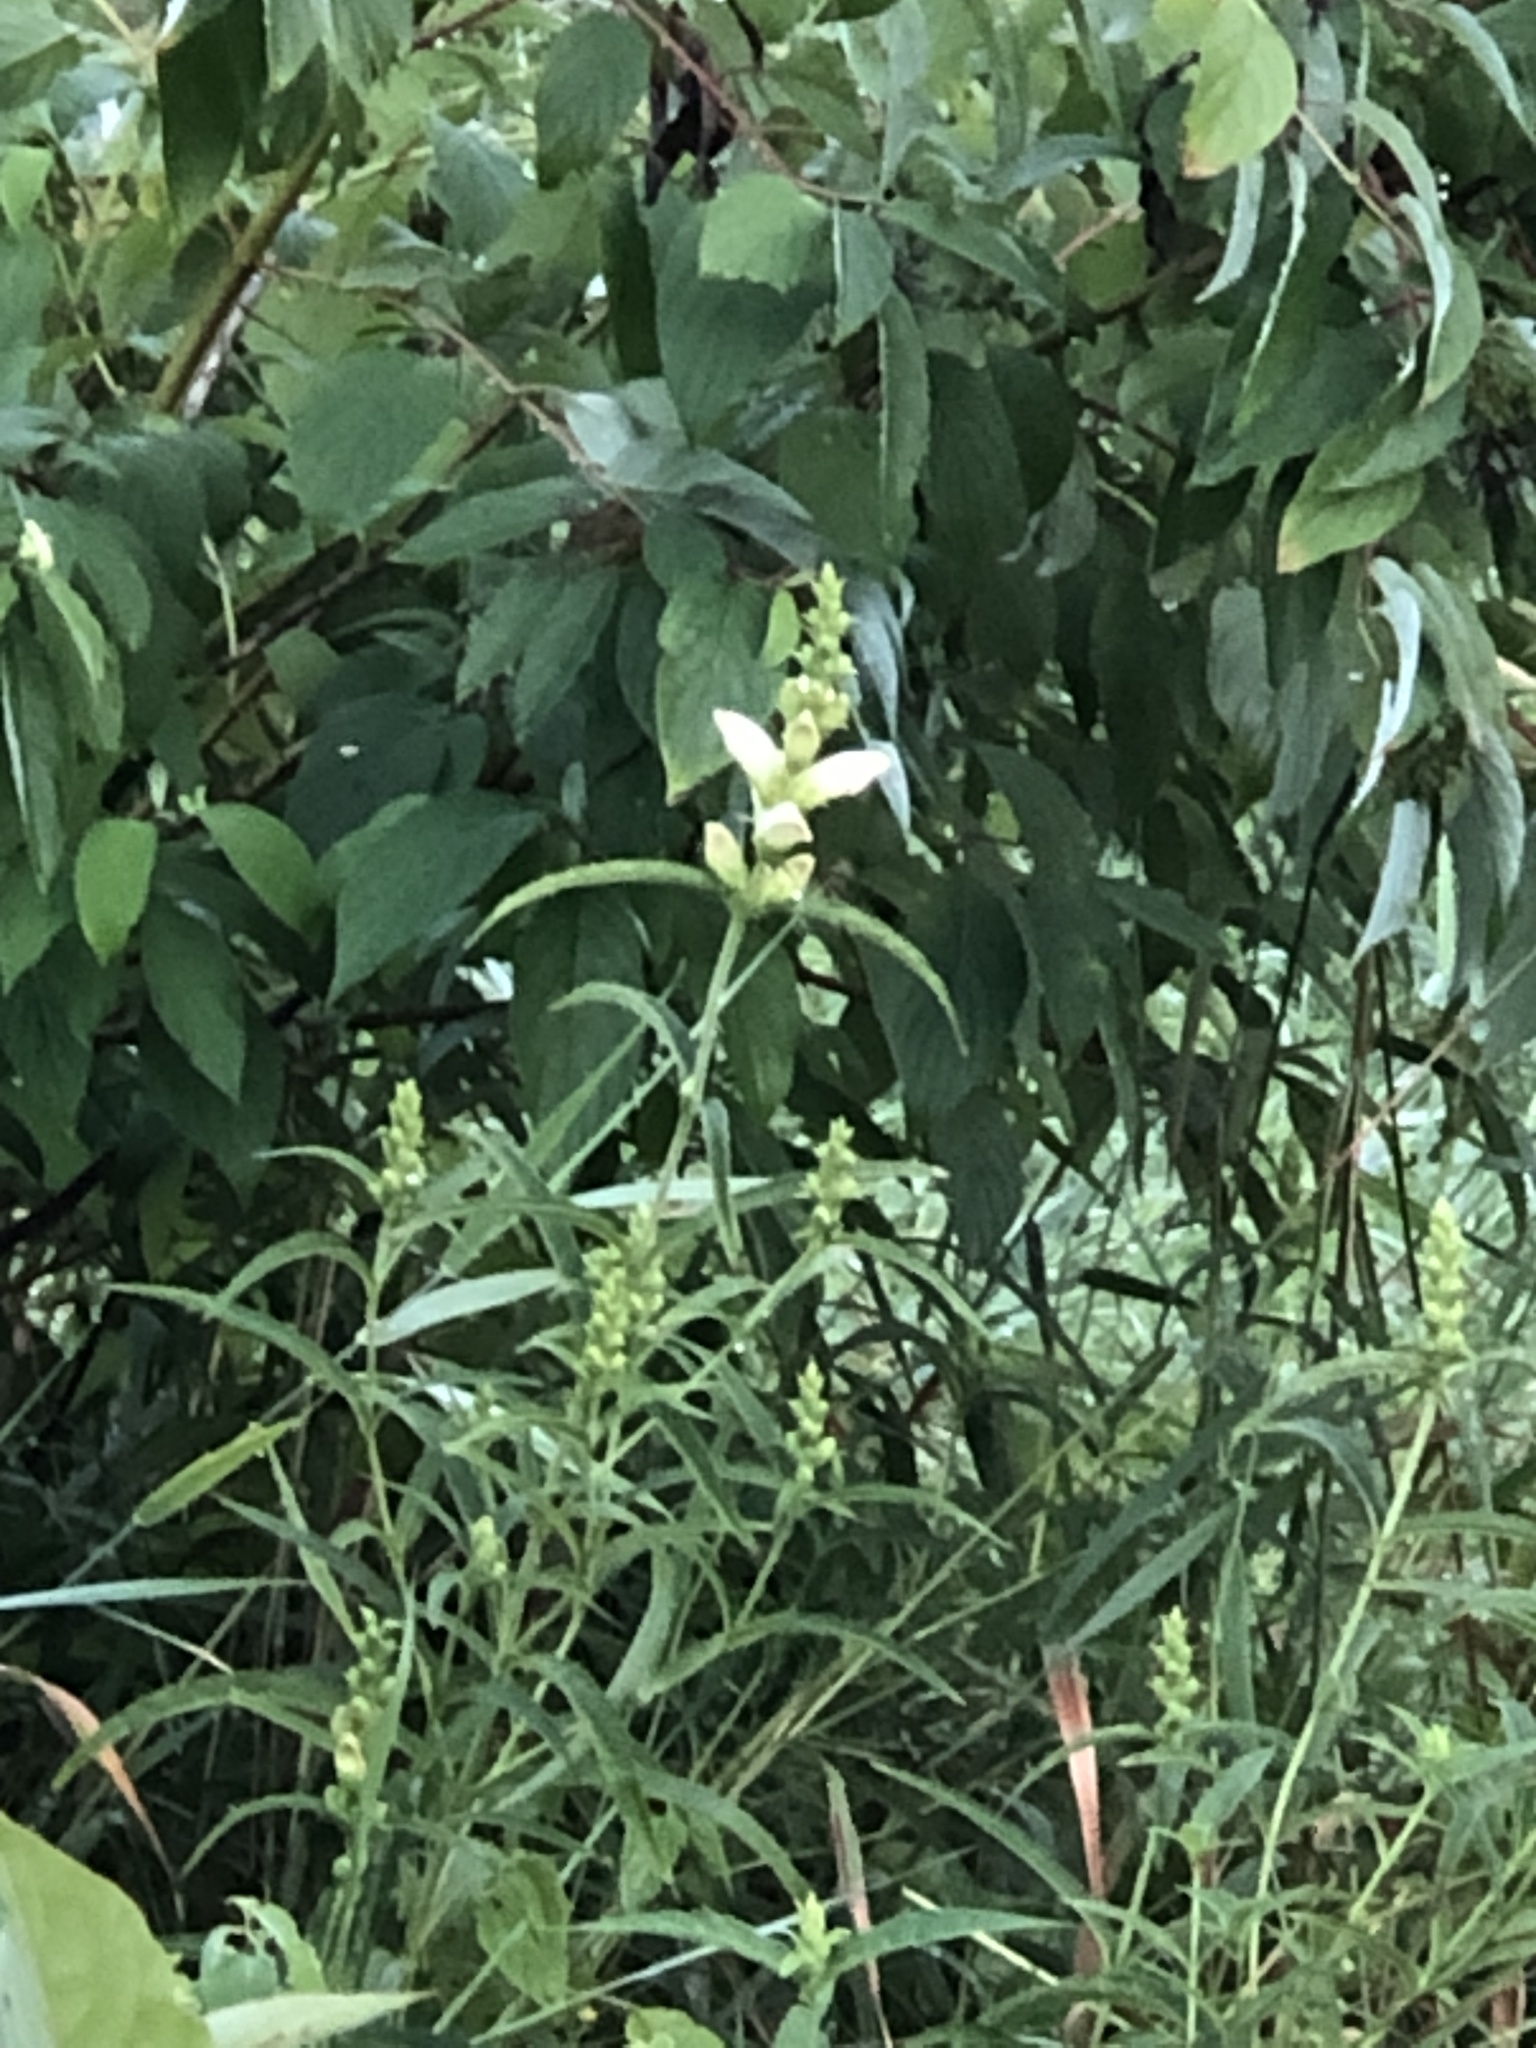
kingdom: Plantae
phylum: Tracheophyta
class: Magnoliopsida
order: Lamiales
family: Plantaginaceae
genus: Chelone
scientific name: Chelone glabra
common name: Snakehead
